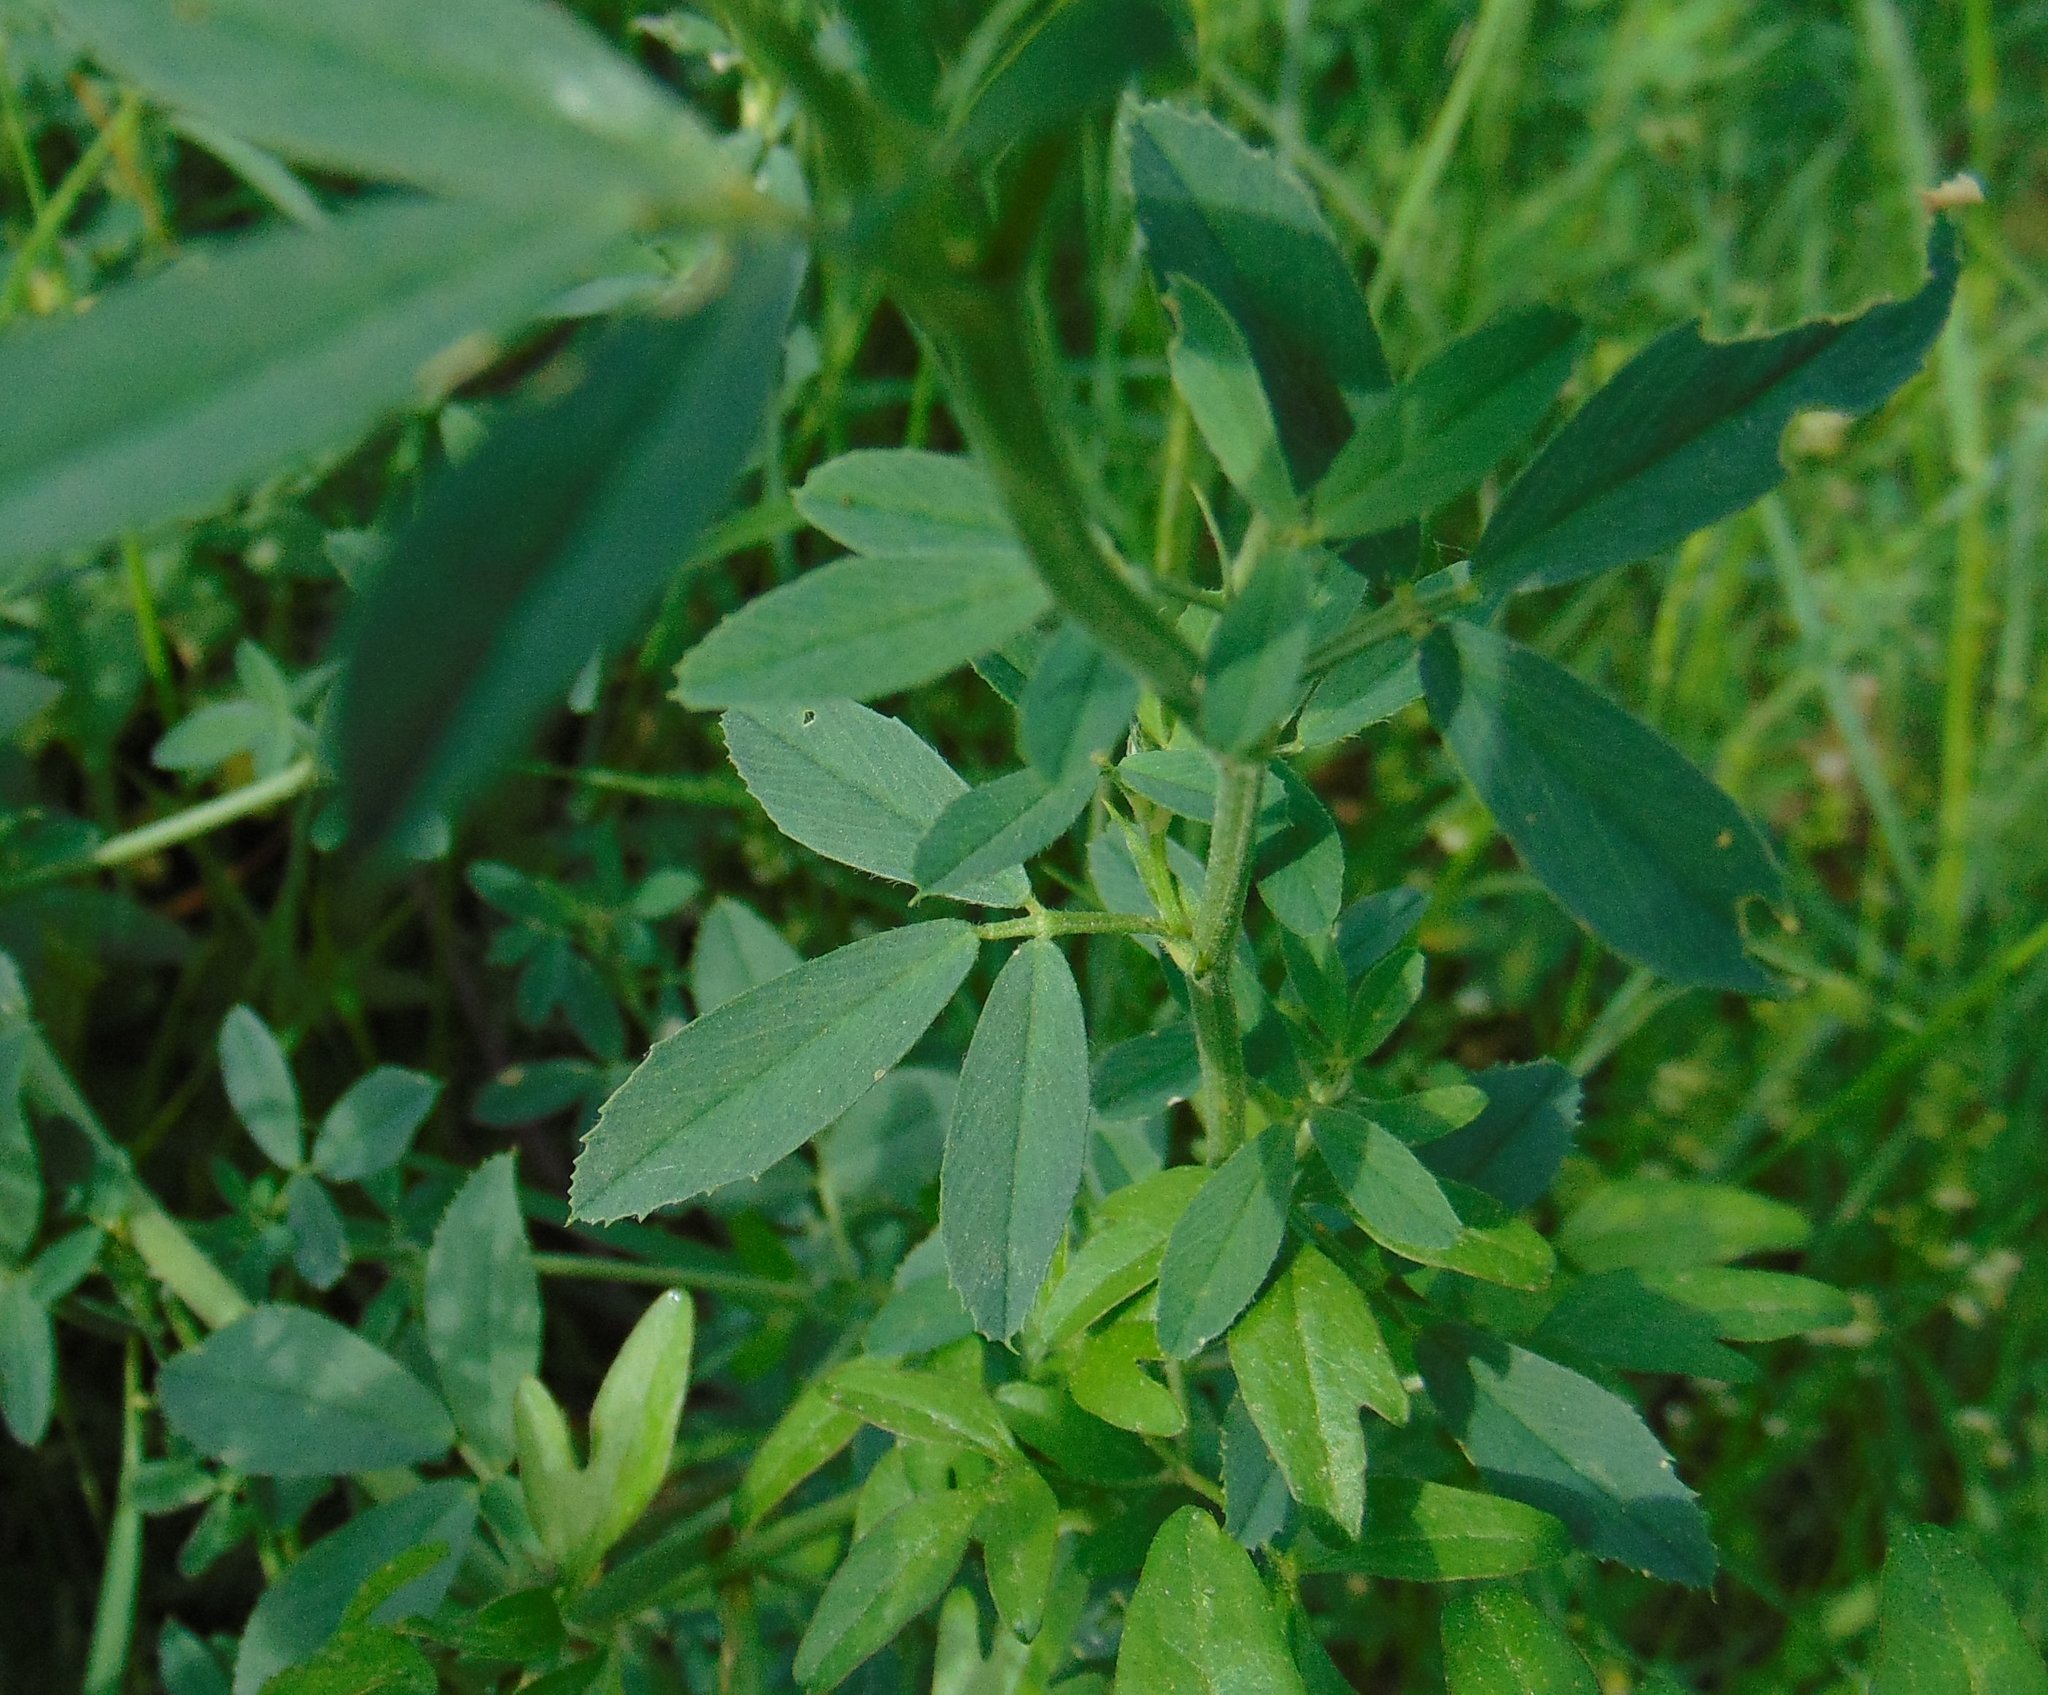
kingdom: Plantae
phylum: Tracheophyta
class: Magnoliopsida
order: Fabales
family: Fabaceae
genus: Medicago
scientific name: Medicago varia
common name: Sand lucerne
